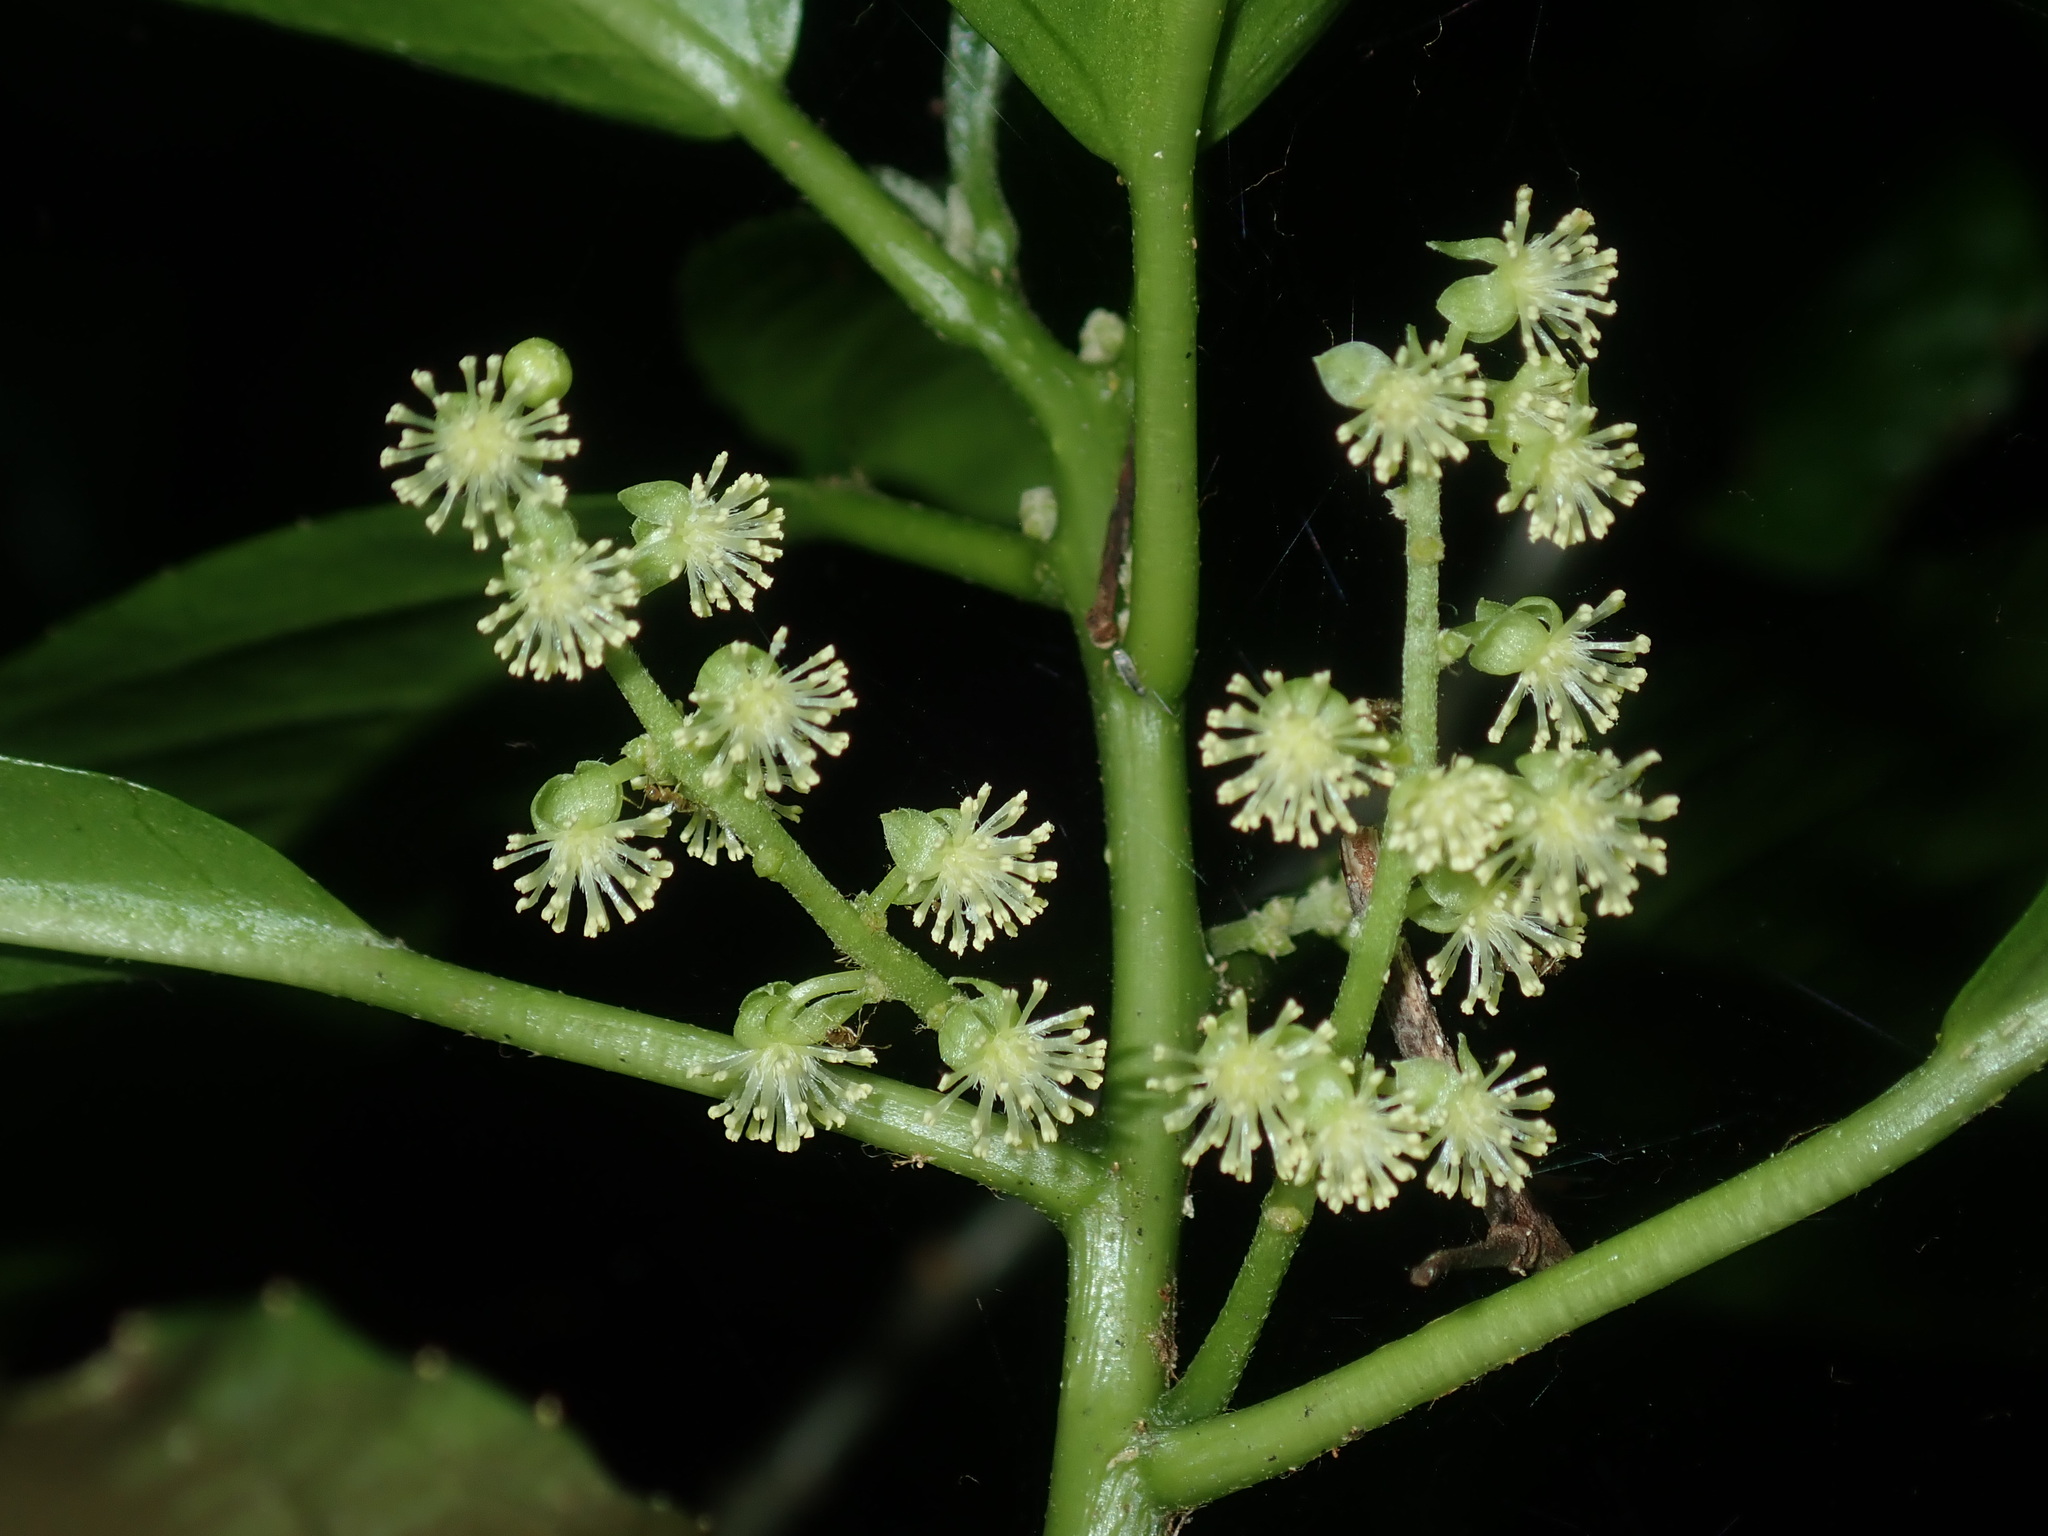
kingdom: Plantae
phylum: Tracheophyta
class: Magnoliopsida
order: Malpighiales
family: Euphorbiaceae
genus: Claoxylon
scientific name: Claoxylon australe
